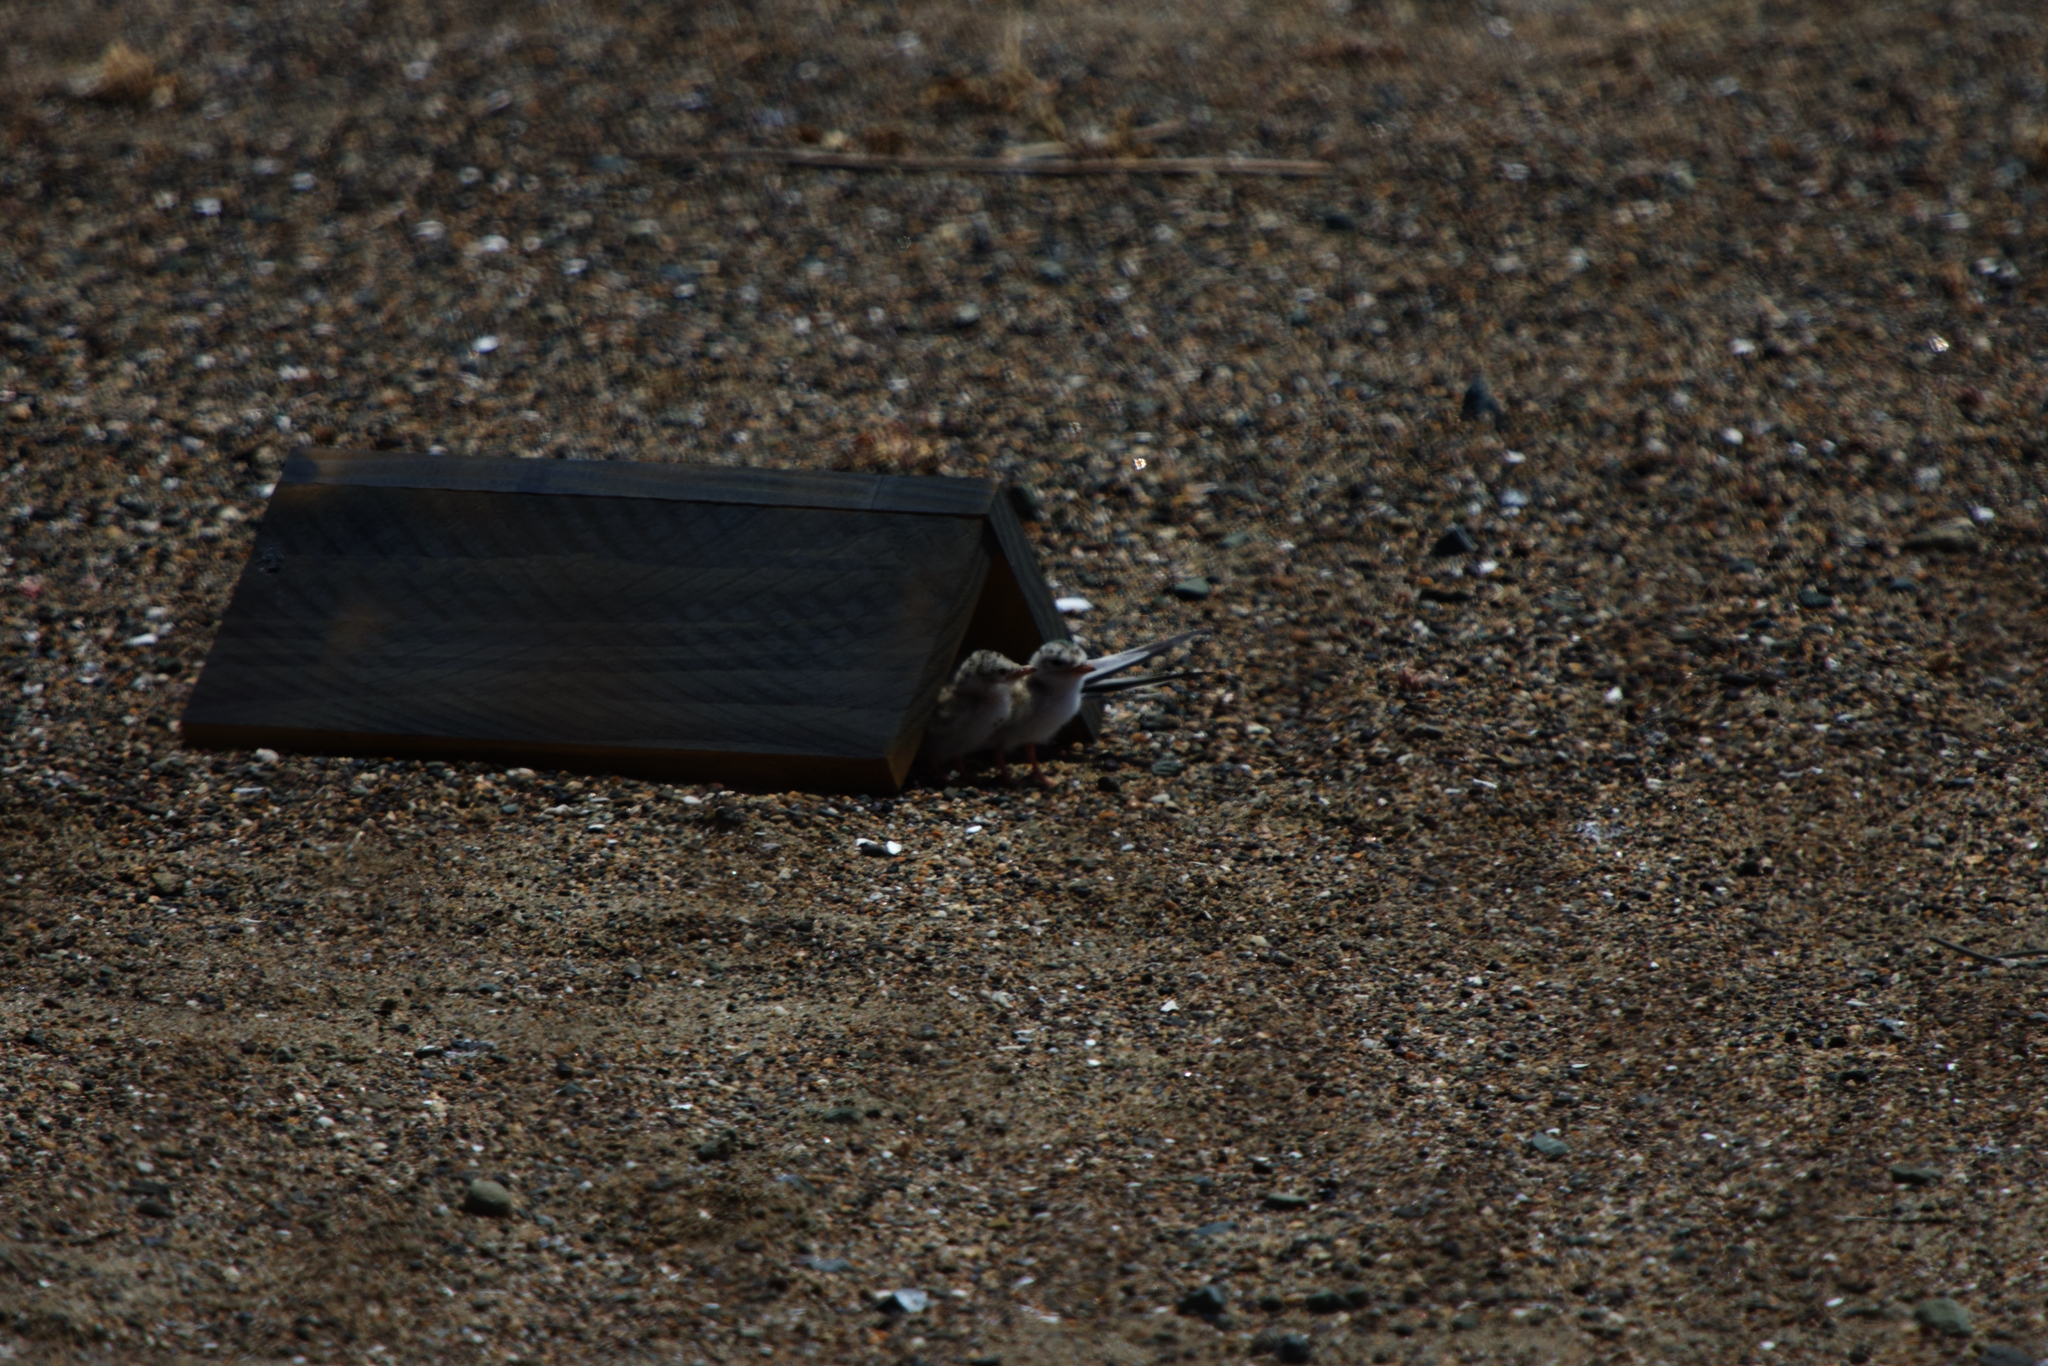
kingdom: Animalia
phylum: Chordata
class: Aves
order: Charadriiformes
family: Laridae
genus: Sternula
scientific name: Sternula antillarum
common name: Least tern
